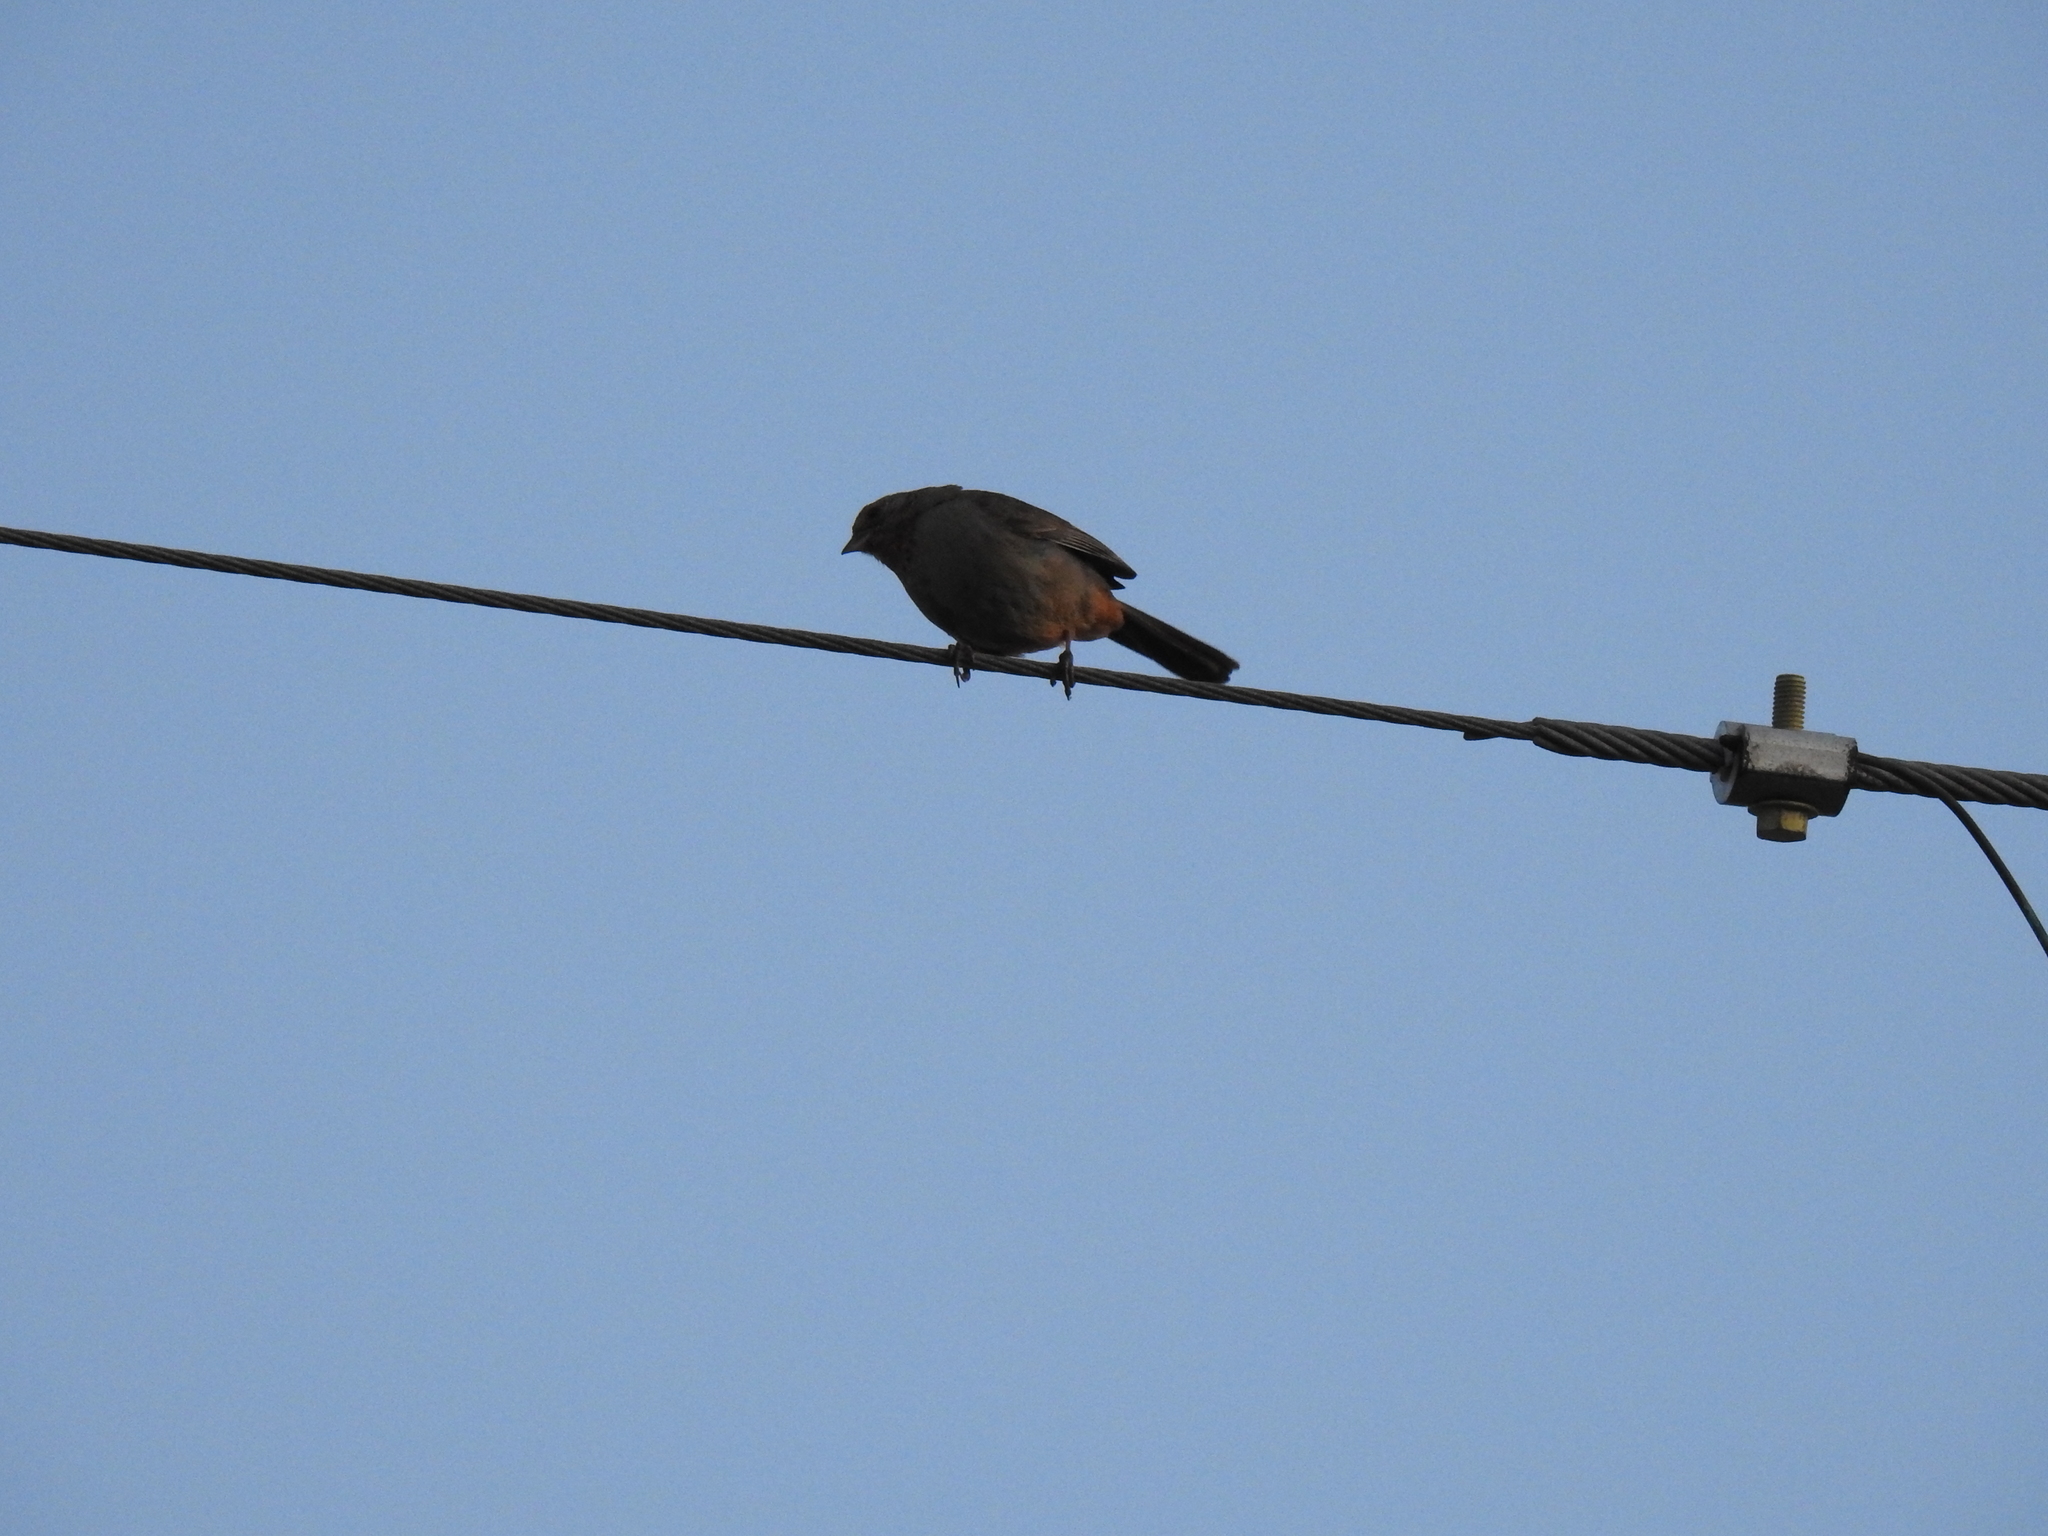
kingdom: Animalia
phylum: Chordata
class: Aves
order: Passeriformes
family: Passerellidae
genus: Melozone
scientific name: Melozone crissalis
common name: California towhee
